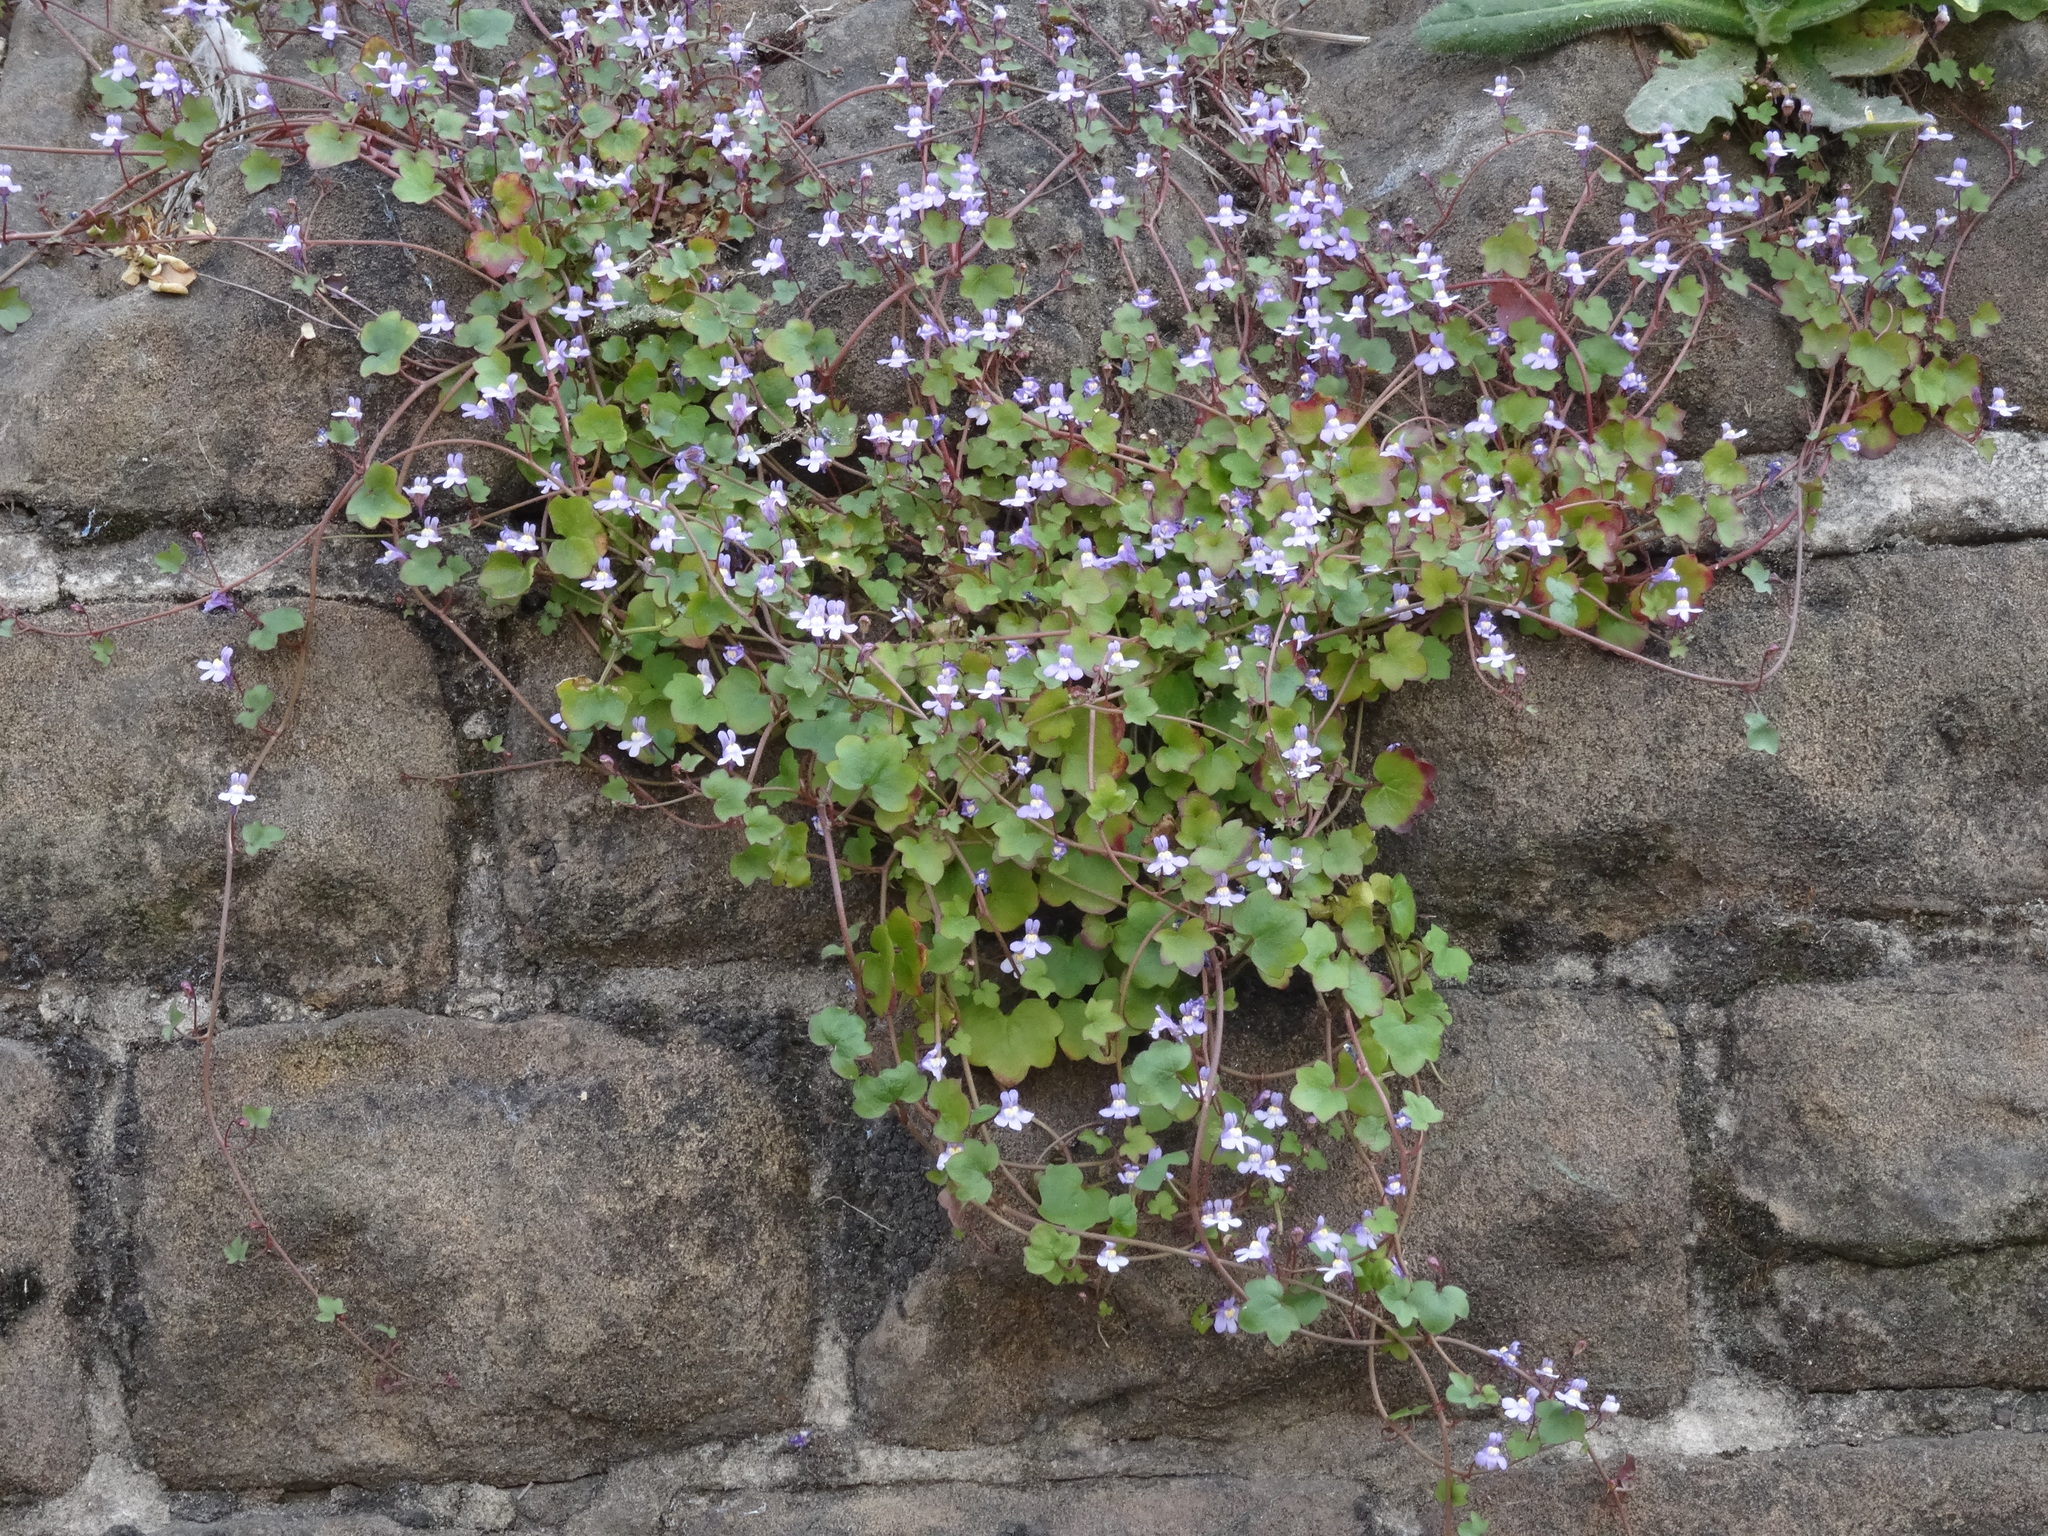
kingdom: Plantae
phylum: Tracheophyta
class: Magnoliopsida
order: Lamiales
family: Plantaginaceae
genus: Cymbalaria
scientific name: Cymbalaria muralis
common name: Ivy-leaved toadflax
